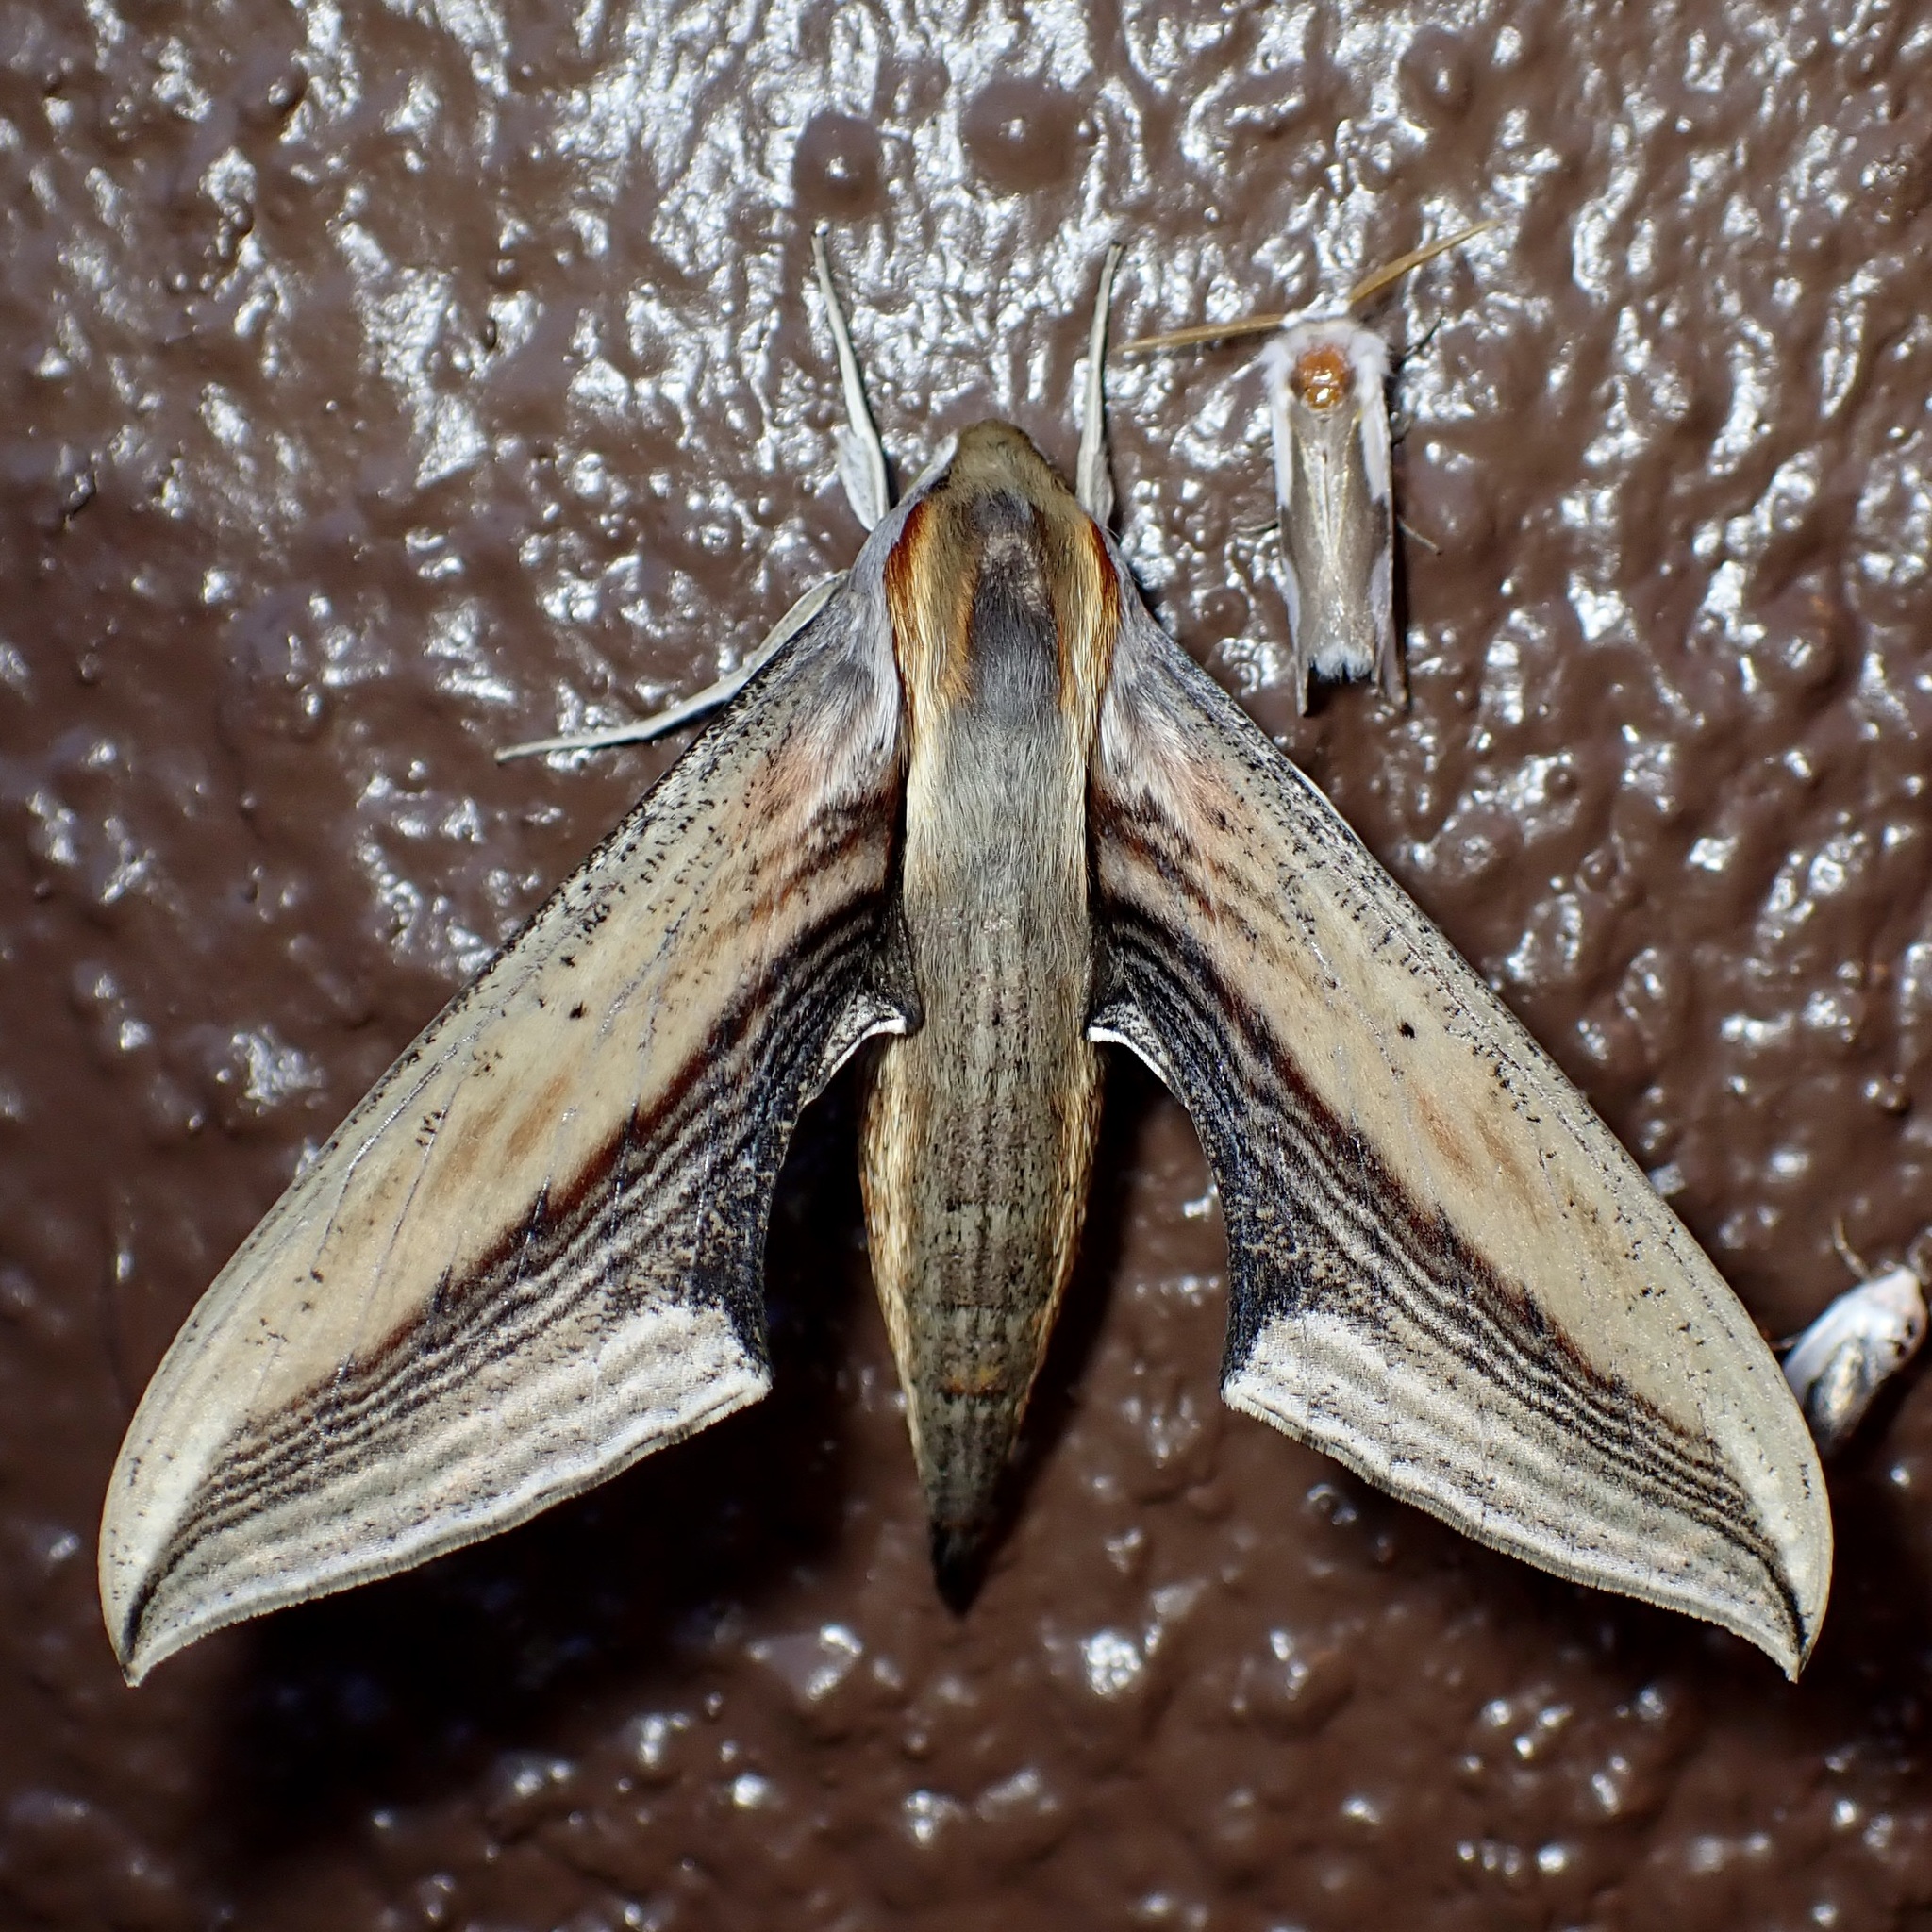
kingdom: Animalia
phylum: Arthropoda
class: Insecta
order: Lepidoptera
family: Sphingidae
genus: Xylophanes
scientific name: Xylophanes falco
